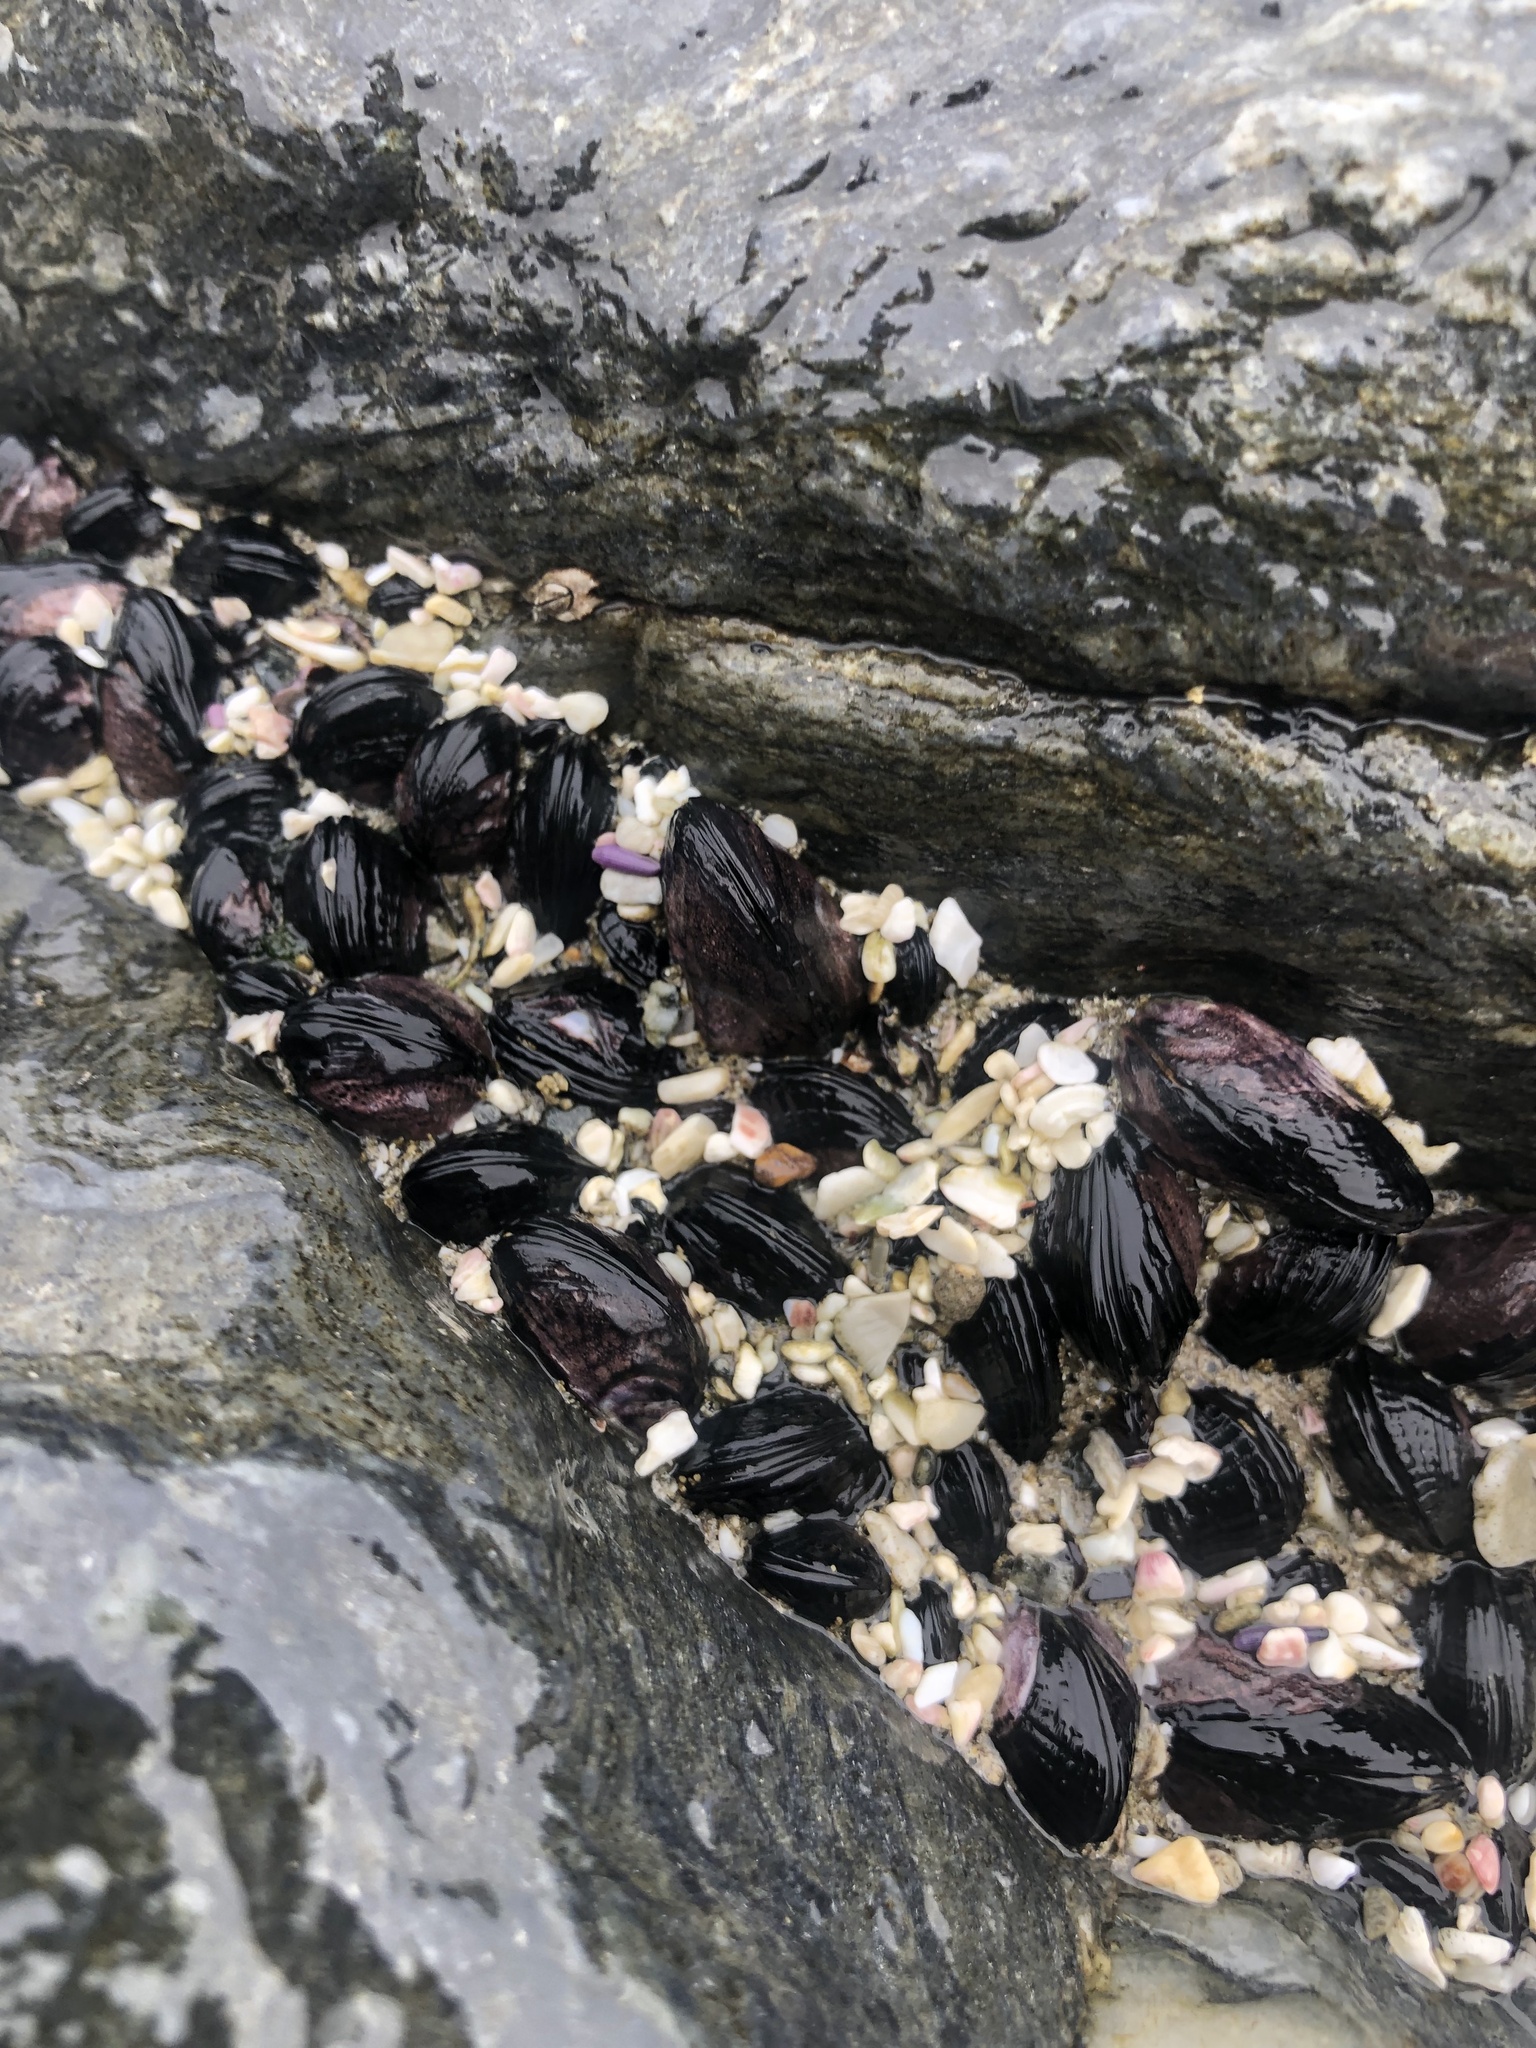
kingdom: Animalia
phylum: Mollusca
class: Bivalvia
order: Mytilida
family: Mytilidae
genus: Perumytilus
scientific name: Perumytilus purpuratus
